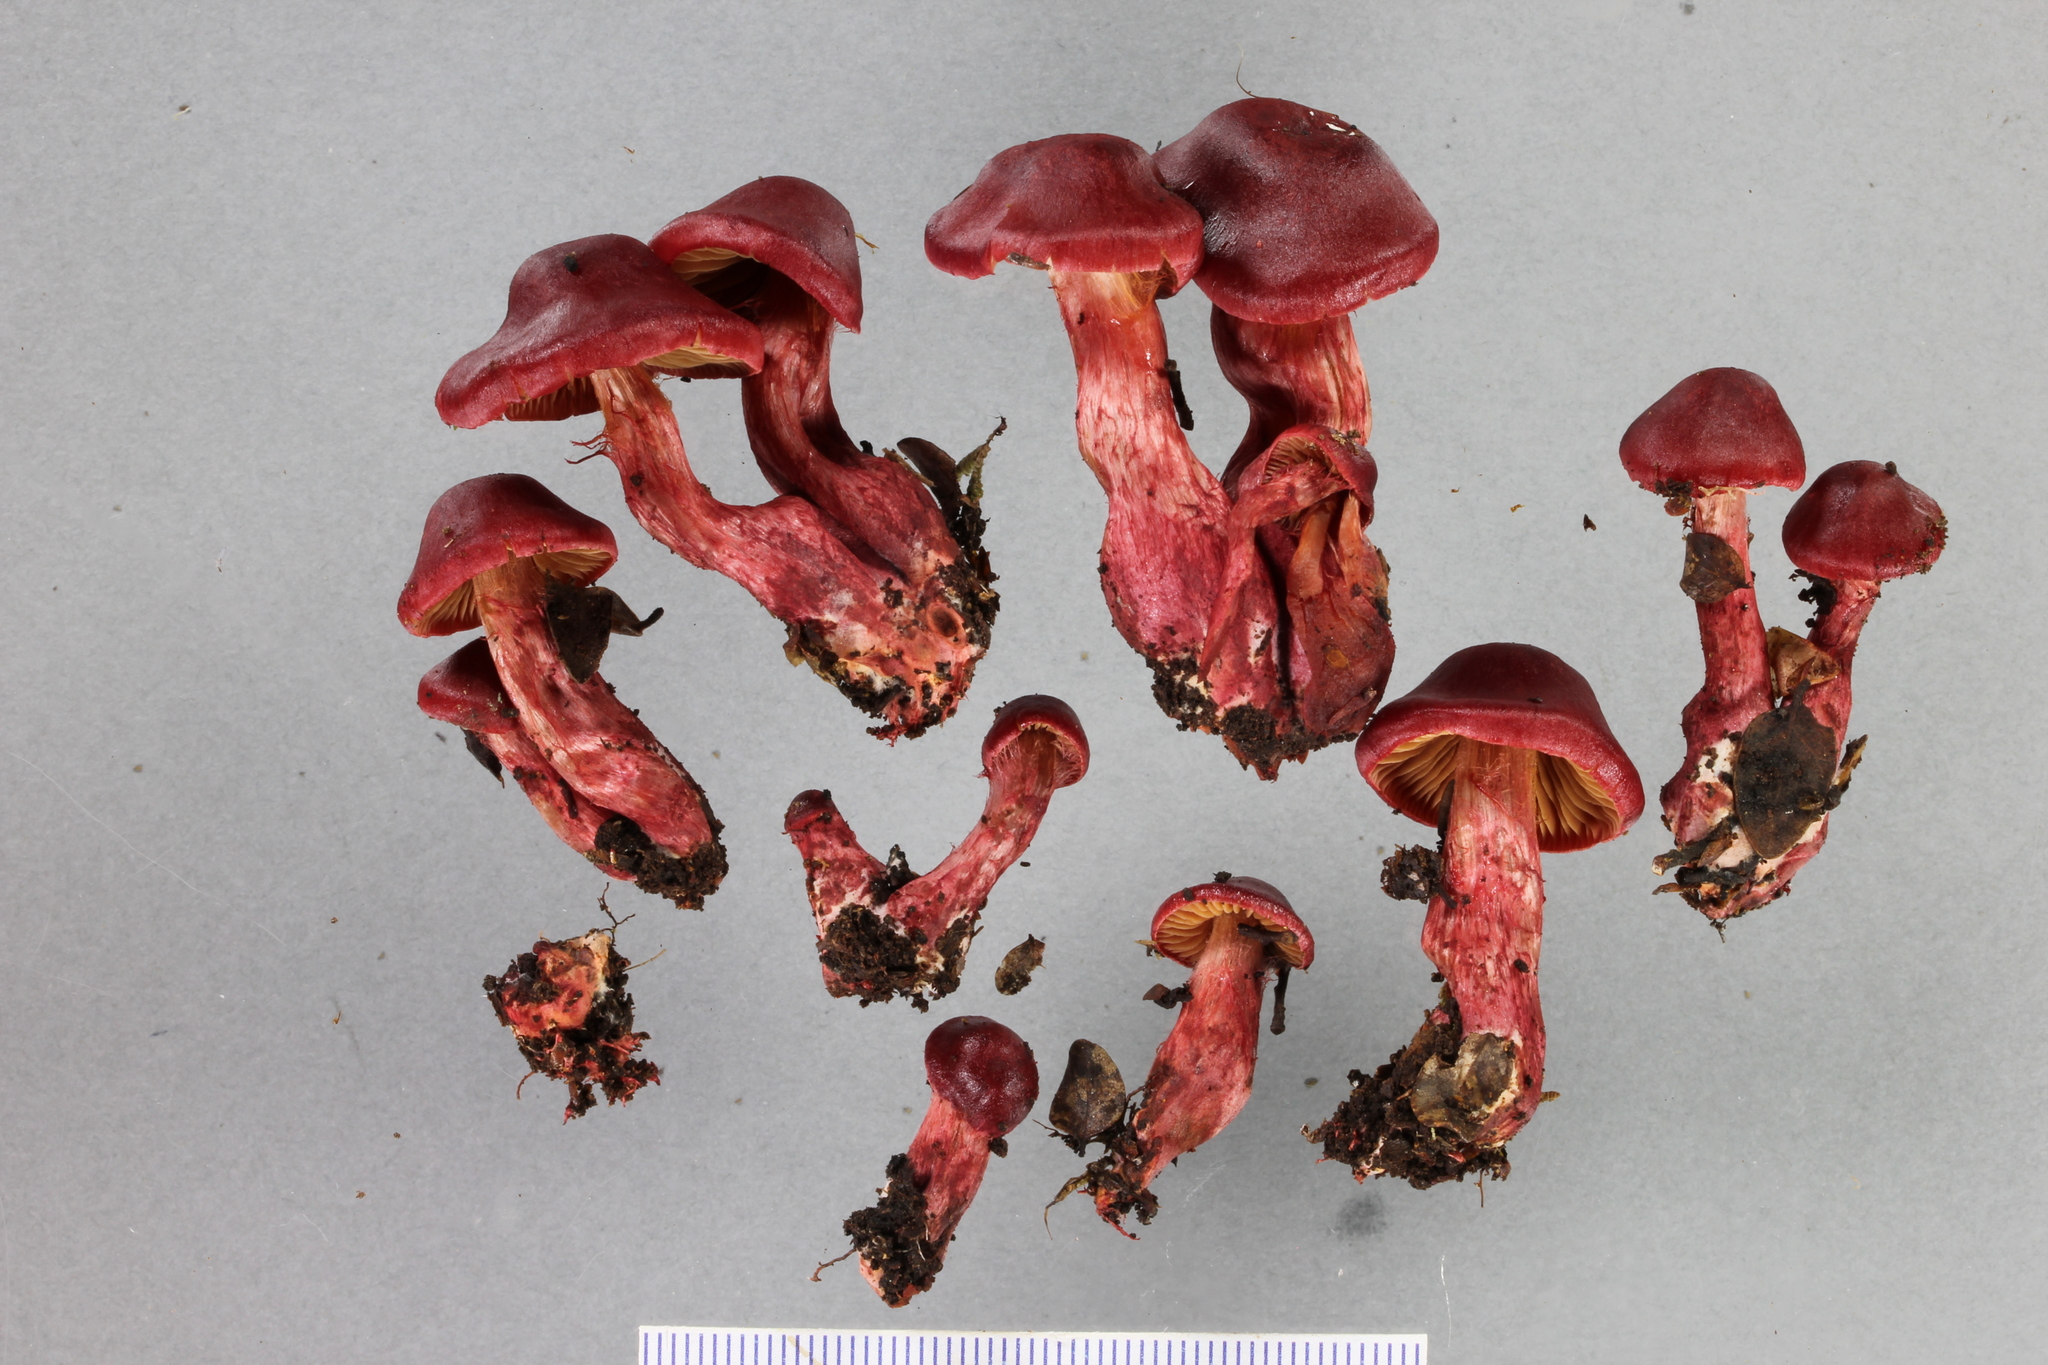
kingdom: Fungi
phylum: Basidiomycota
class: Agaricomycetes
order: Agaricales
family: Cortinariaceae
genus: Cortinarius
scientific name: Cortinarius cardinalis
